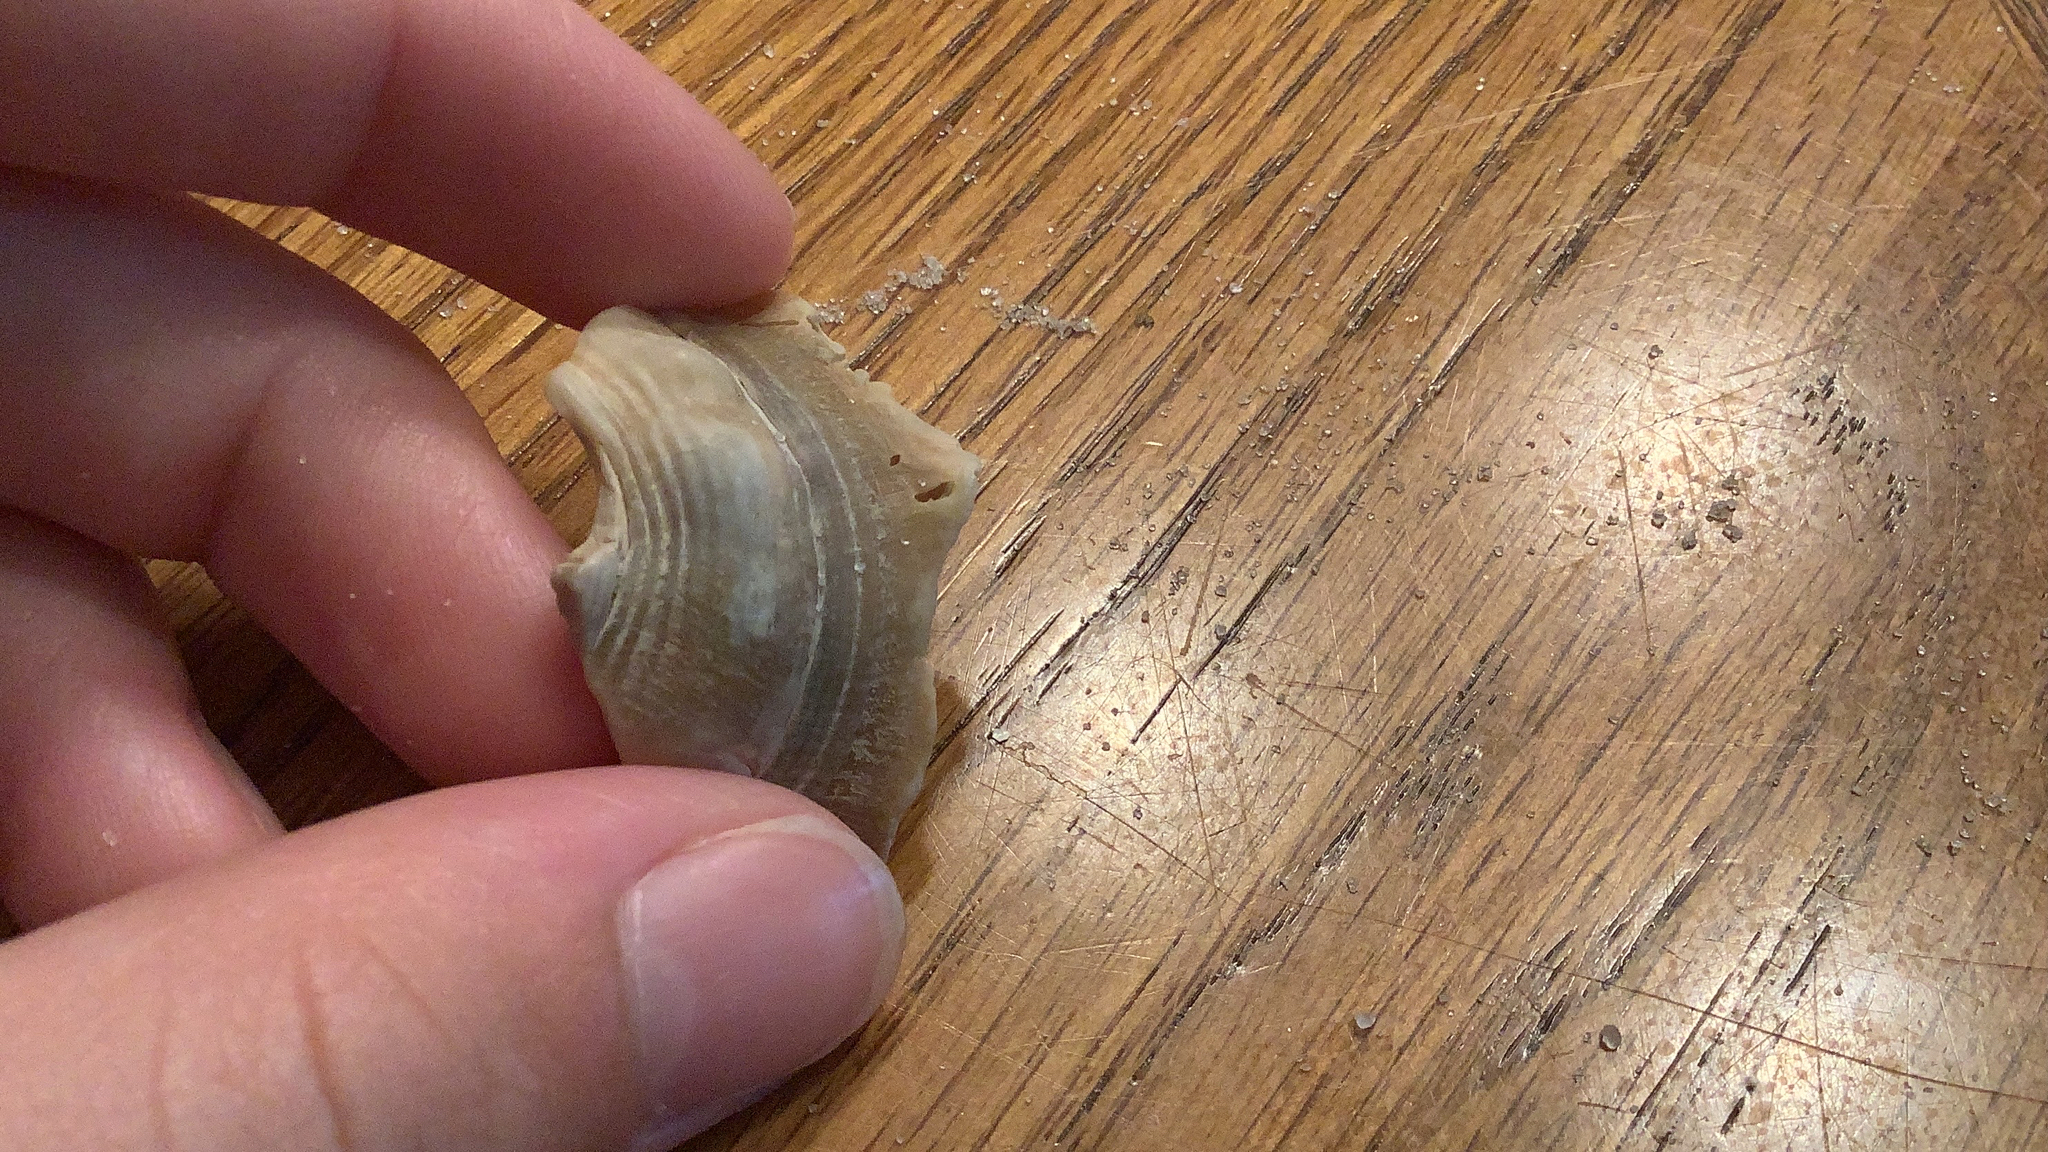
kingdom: Animalia
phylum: Mollusca
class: Gastropoda
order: Littorinimorpha
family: Strombidae
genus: Strombus
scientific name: Strombus alatus
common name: Florida fighting conch
